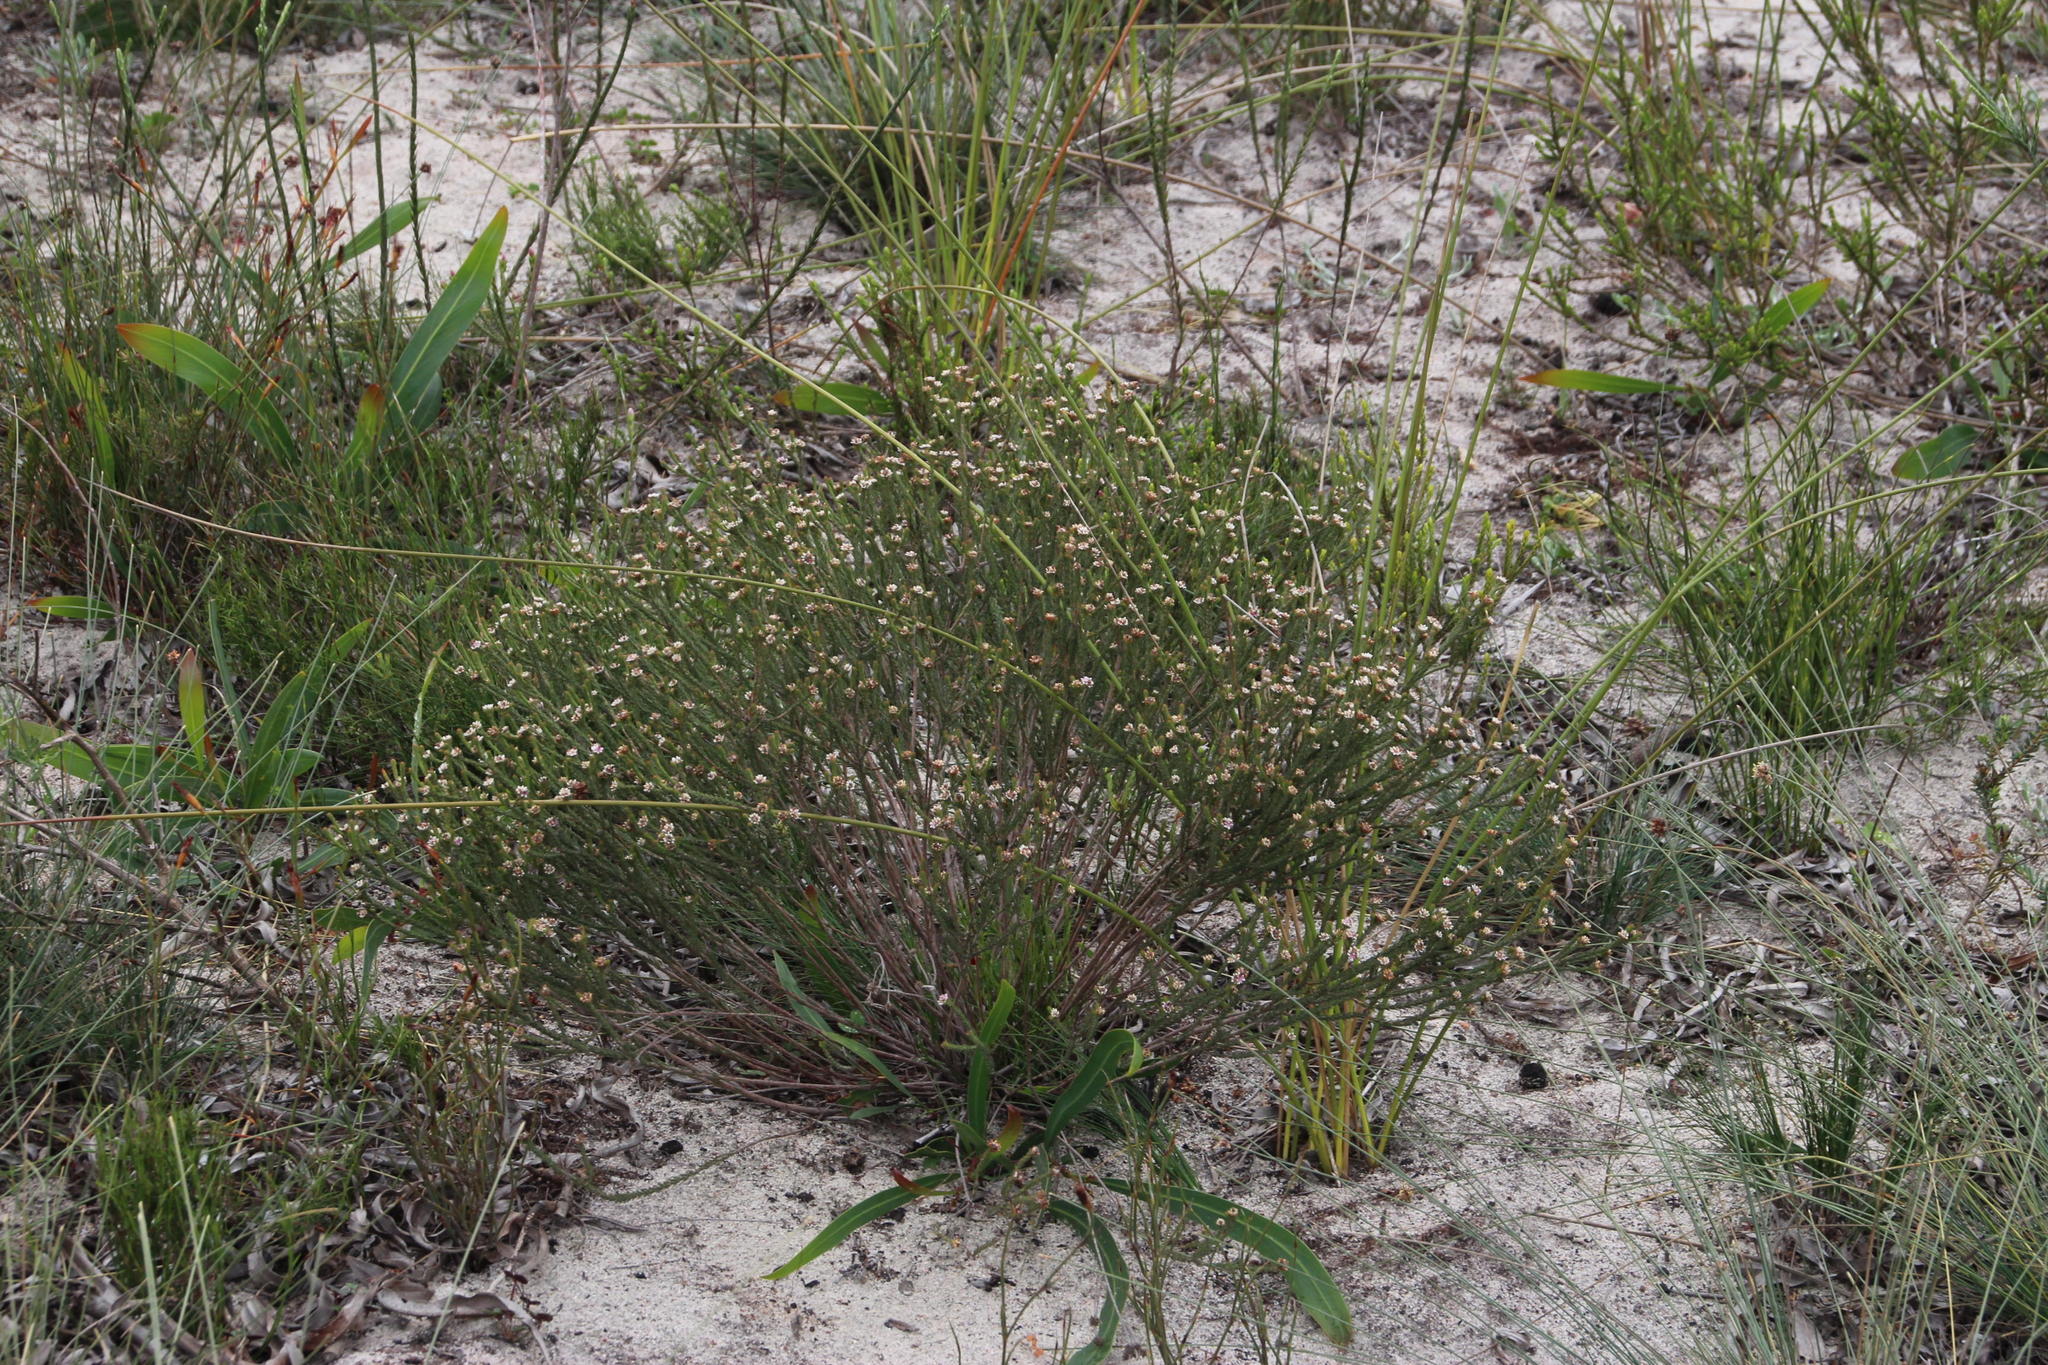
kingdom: Plantae
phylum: Tracheophyta
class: Magnoliopsida
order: Bruniales
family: Bruniaceae
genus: Staavia
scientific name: Staavia radiata
